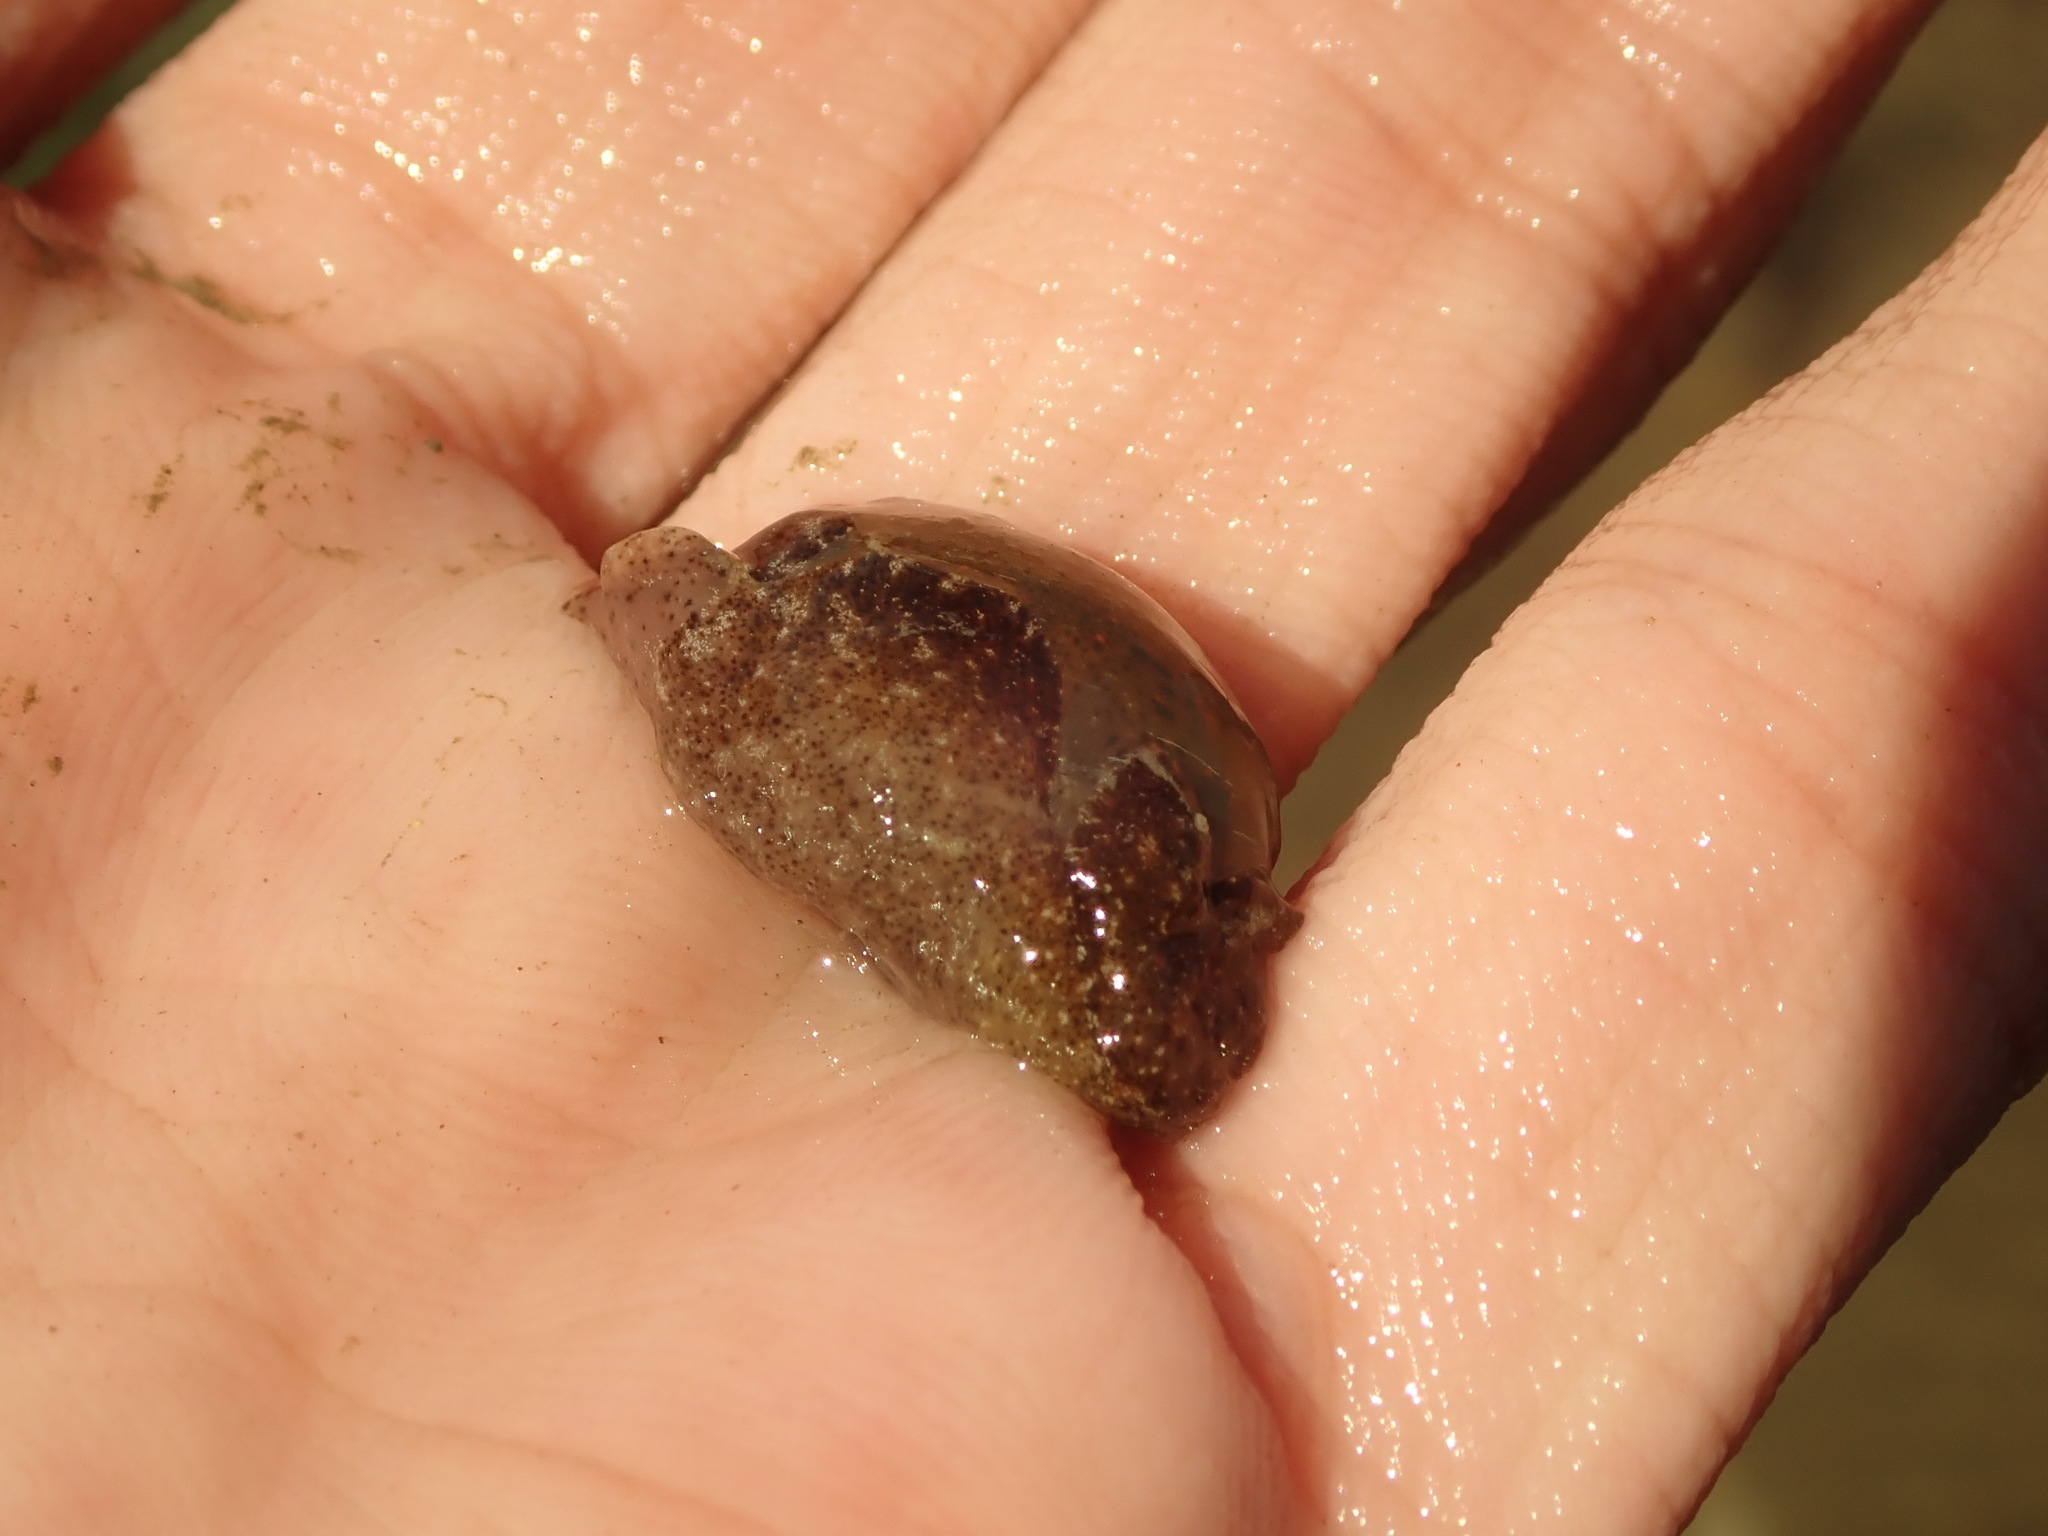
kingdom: Animalia
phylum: Mollusca
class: Gastropoda
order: Cephalaspidea
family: Haminoeidae
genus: Haloa
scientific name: Haloa japonica
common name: Japanese bubble snail
